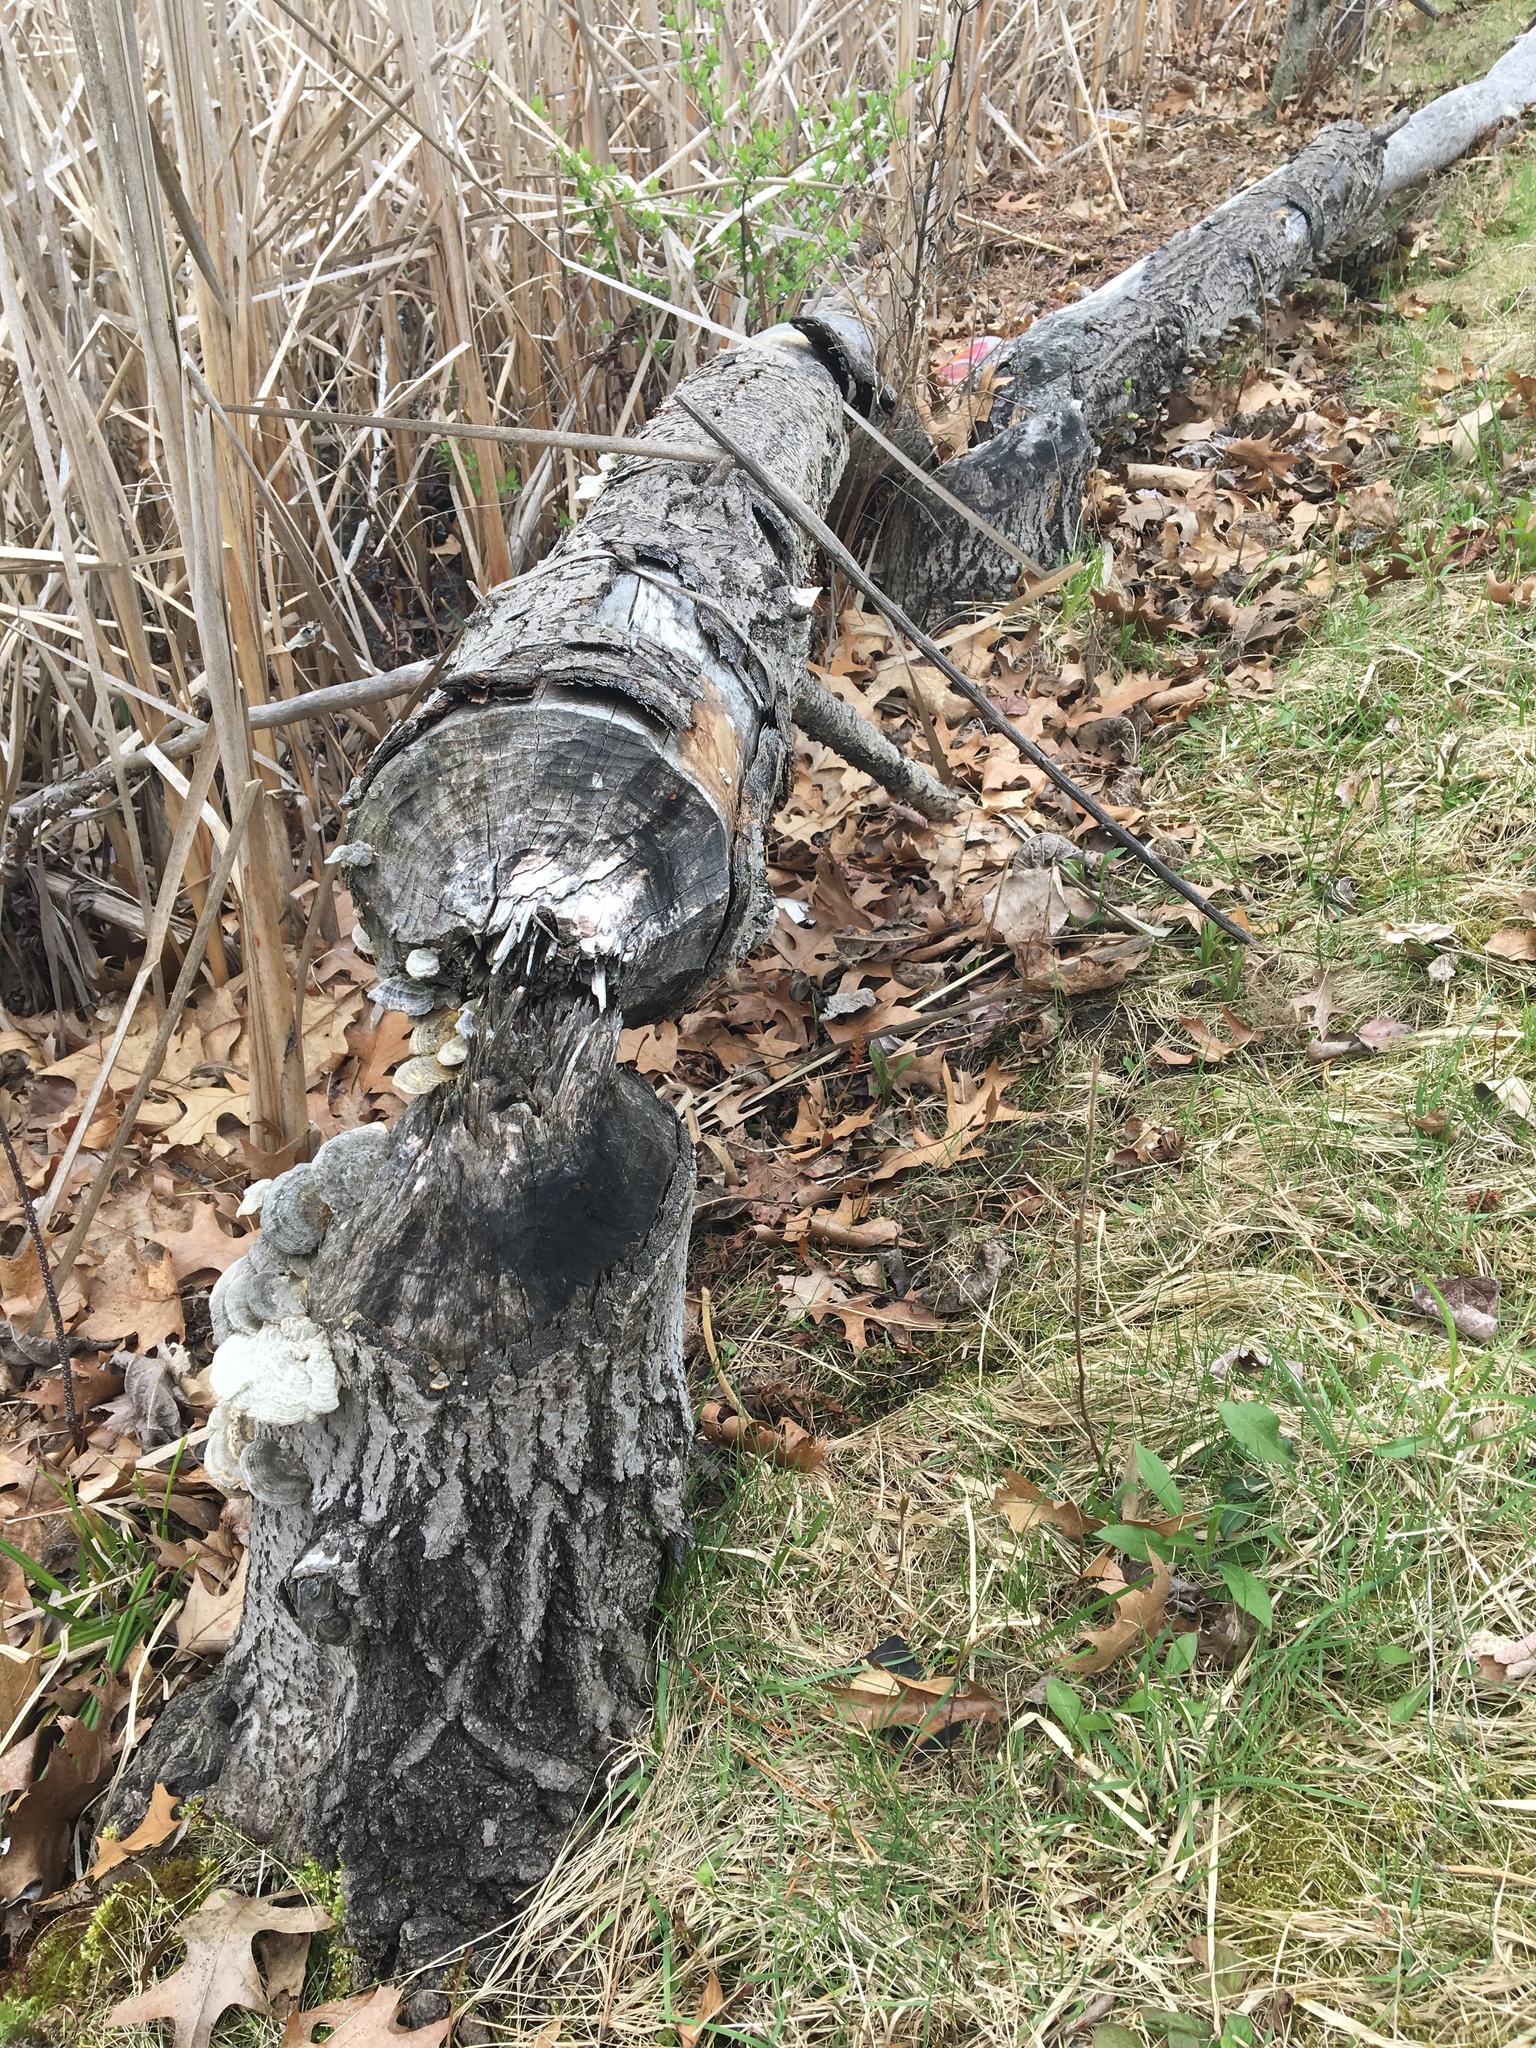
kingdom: Animalia
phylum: Chordata
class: Mammalia
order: Rodentia
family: Castoridae
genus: Castor
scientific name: Castor canadensis
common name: American beaver
